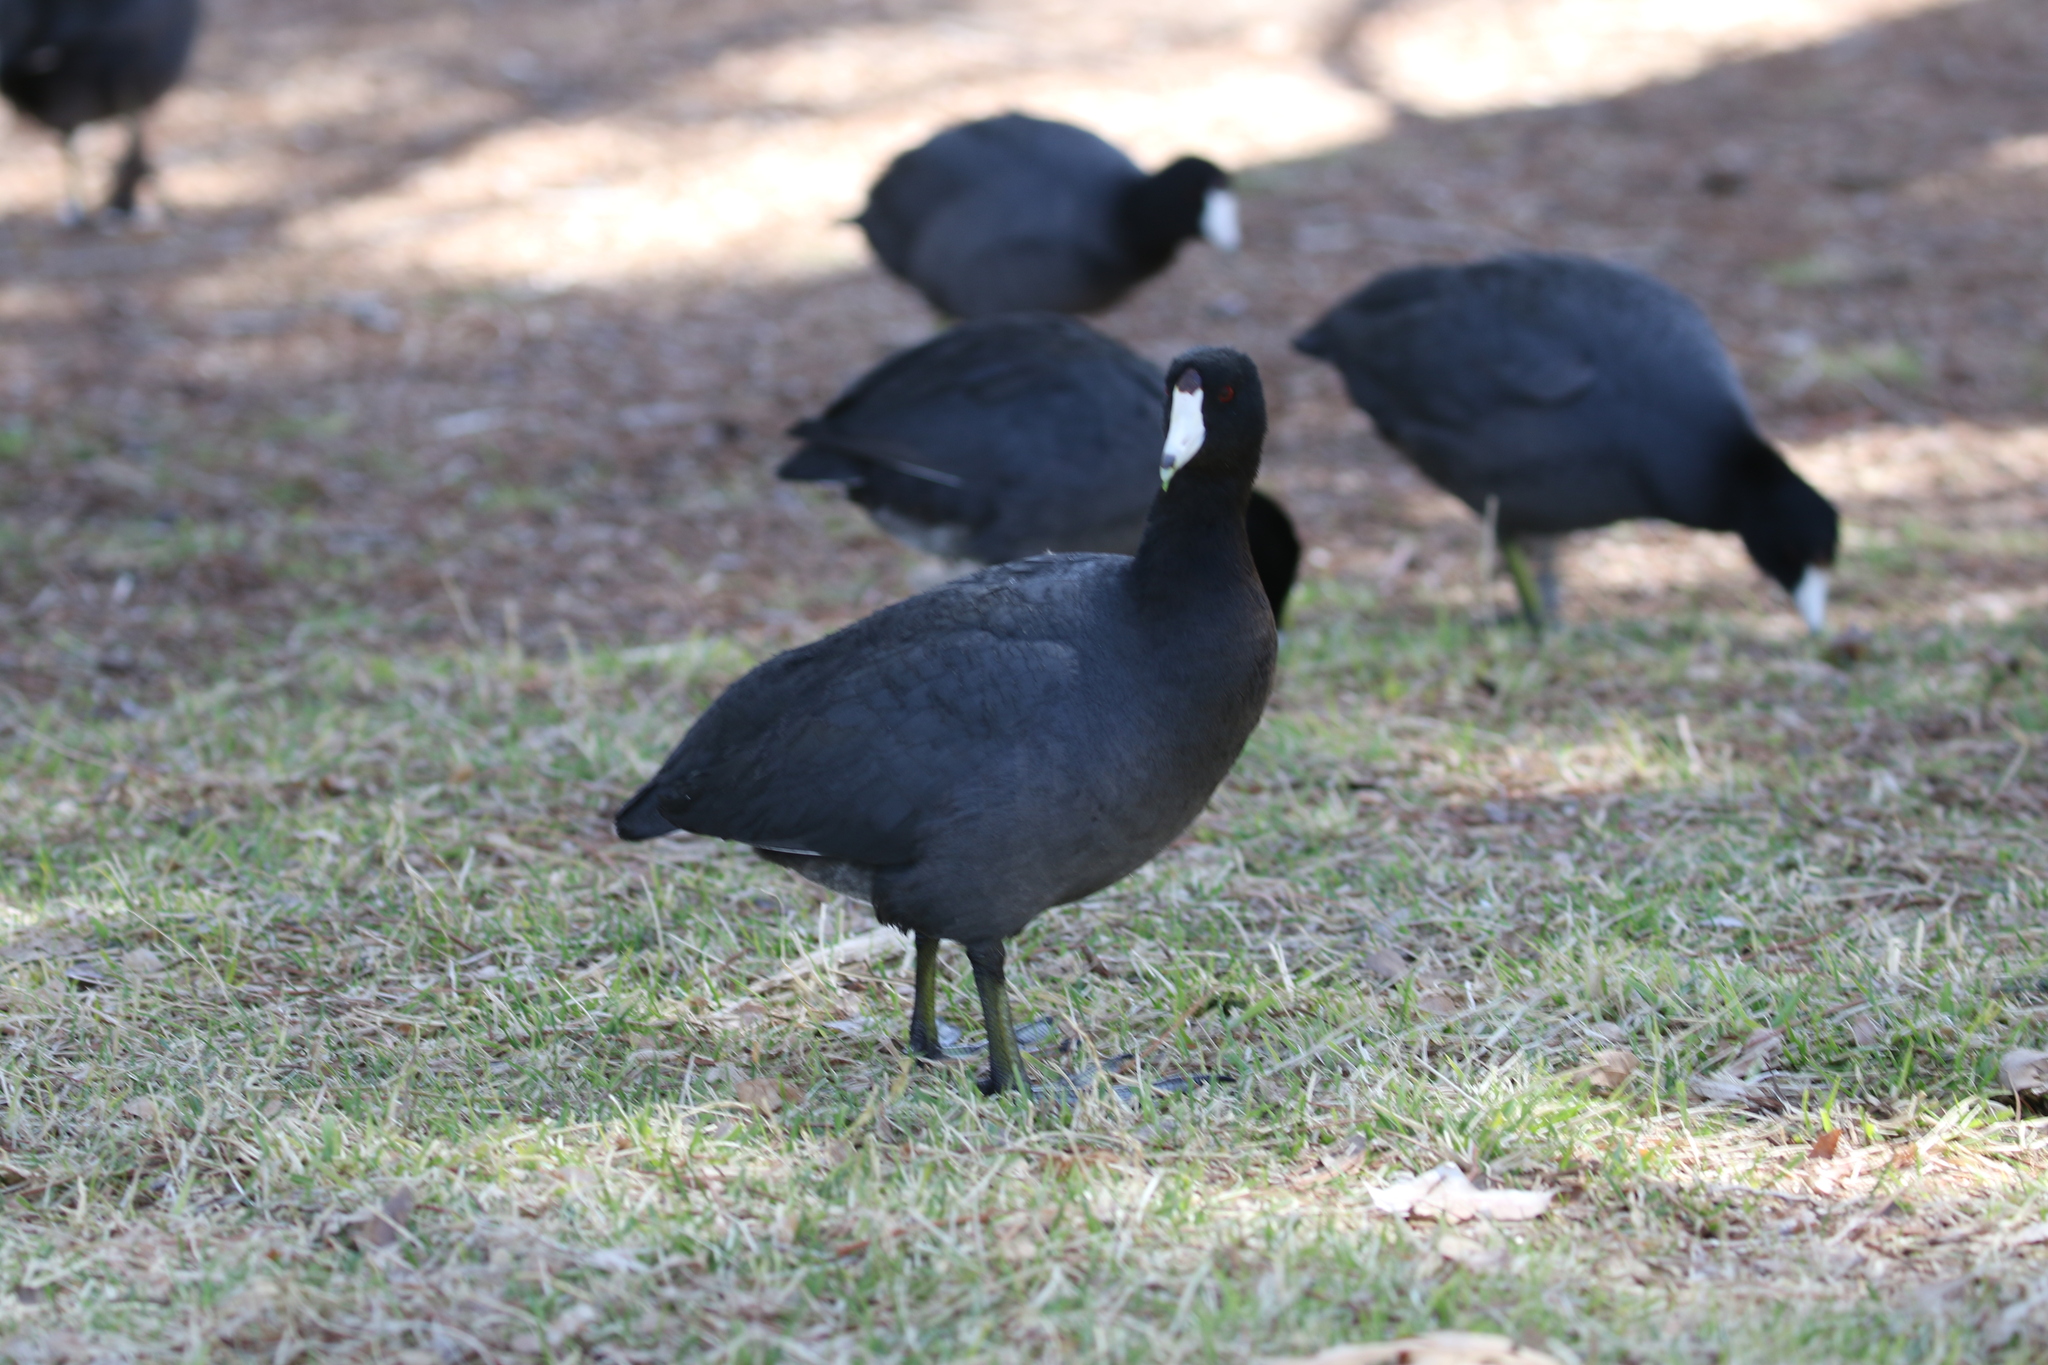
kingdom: Animalia
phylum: Chordata
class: Aves
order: Gruiformes
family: Rallidae
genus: Fulica
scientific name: Fulica americana
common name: American coot
